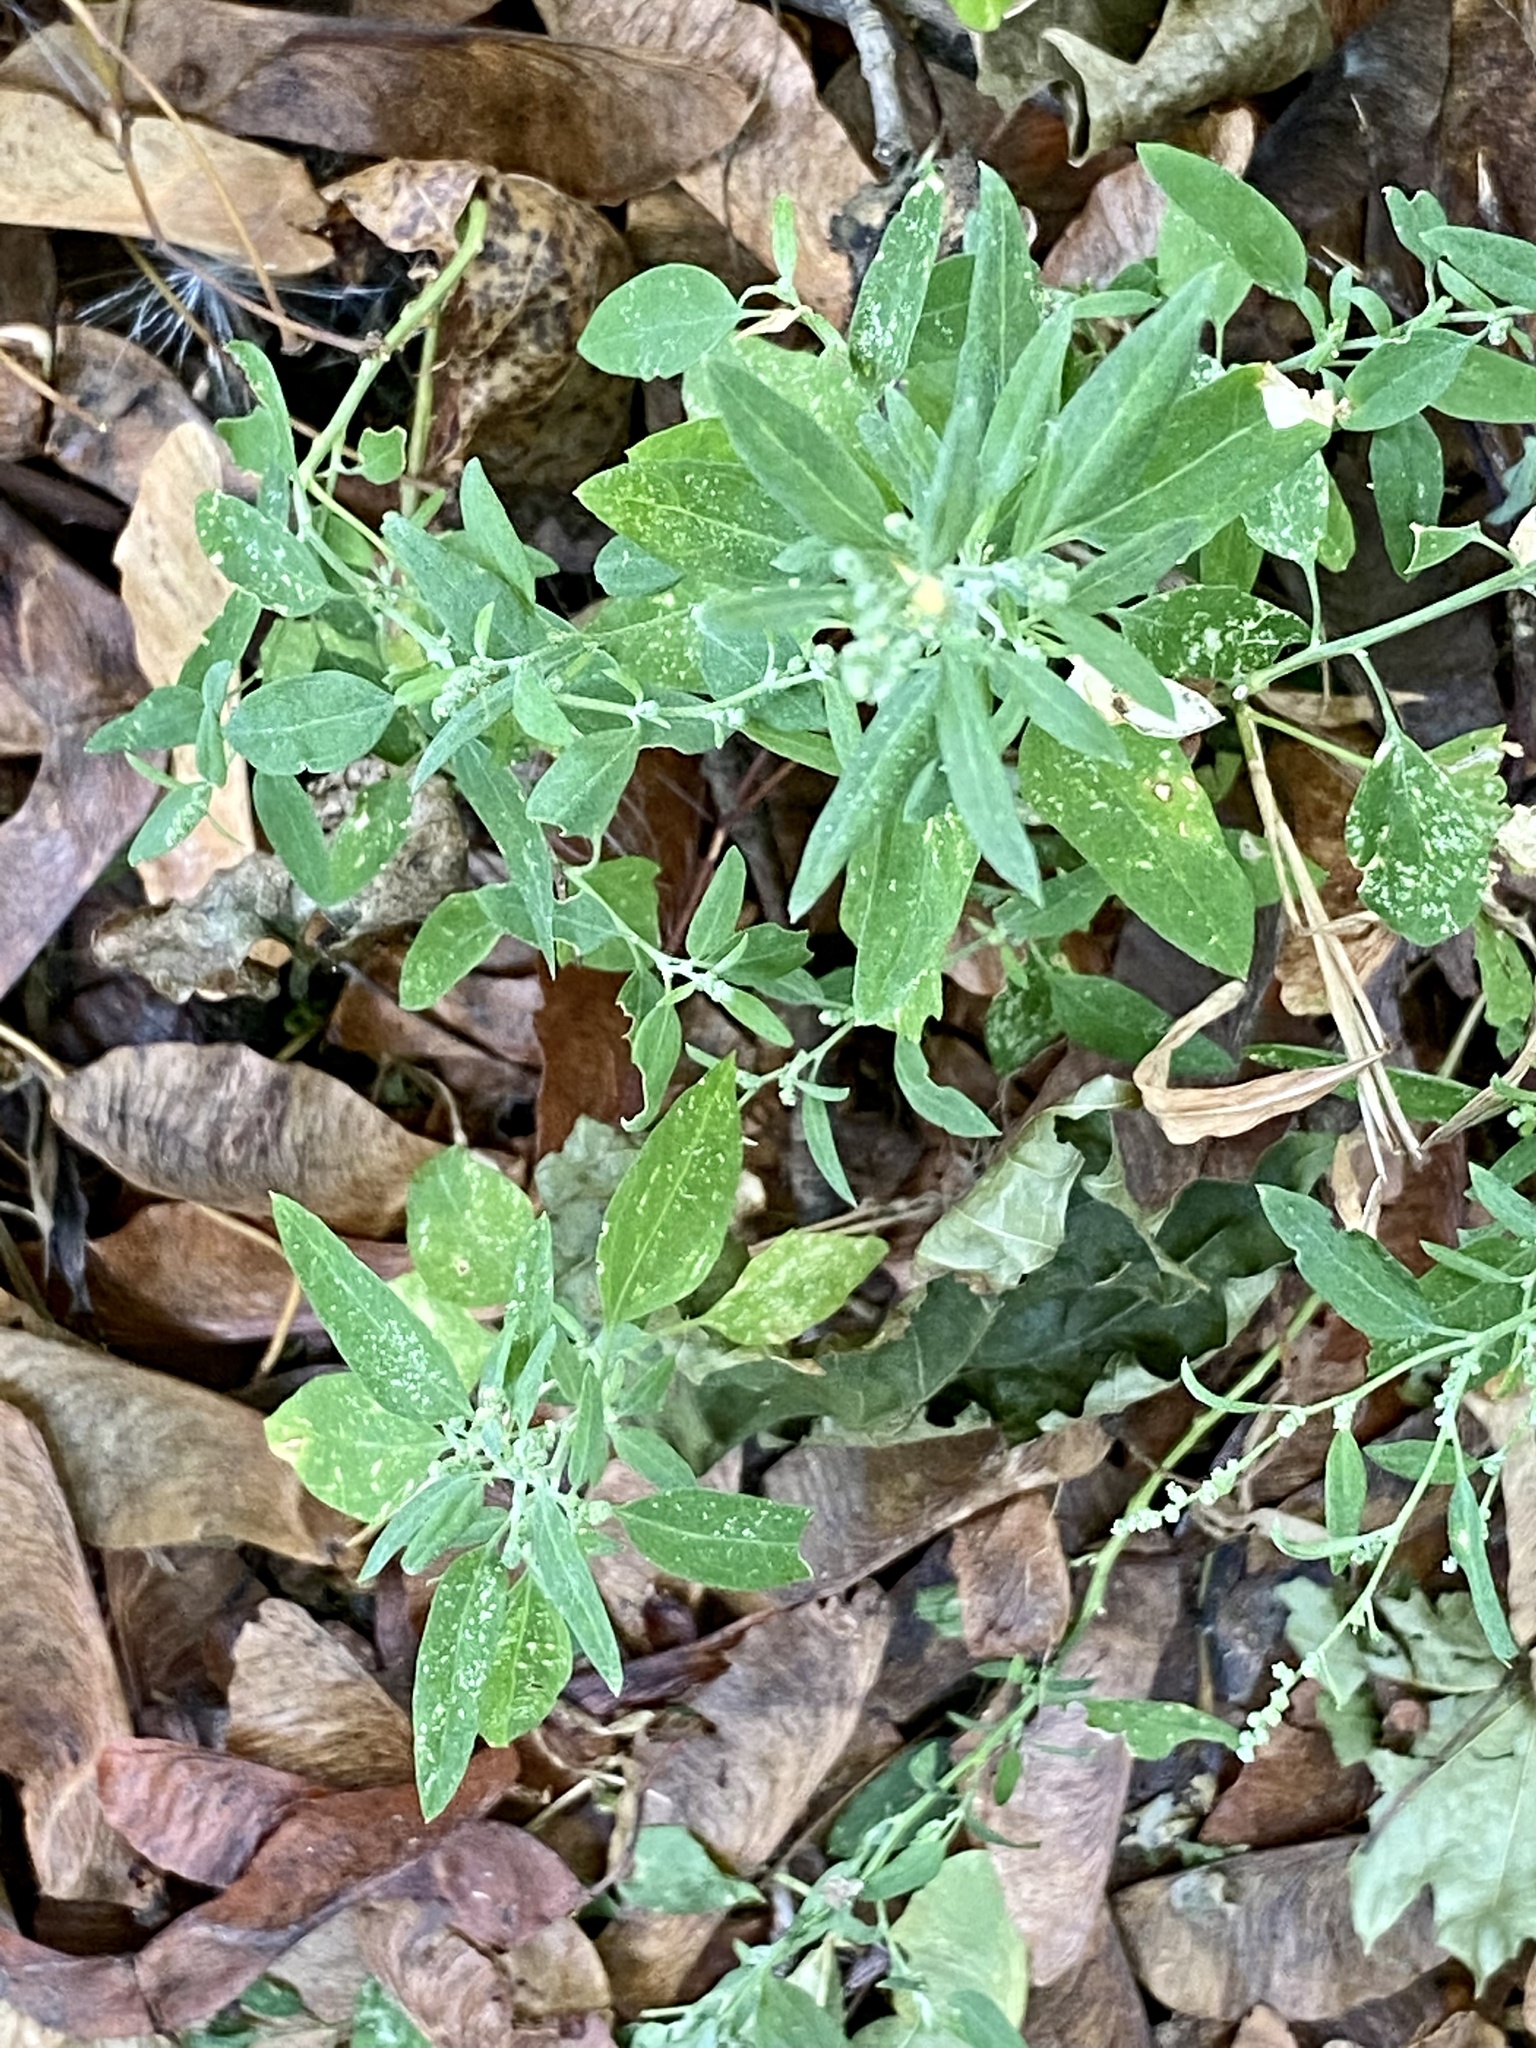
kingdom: Plantae
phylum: Tracheophyta
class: Magnoliopsida
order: Caryophyllales
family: Amaranthaceae
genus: Chenopodium
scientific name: Chenopodium album
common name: Fat-hen
